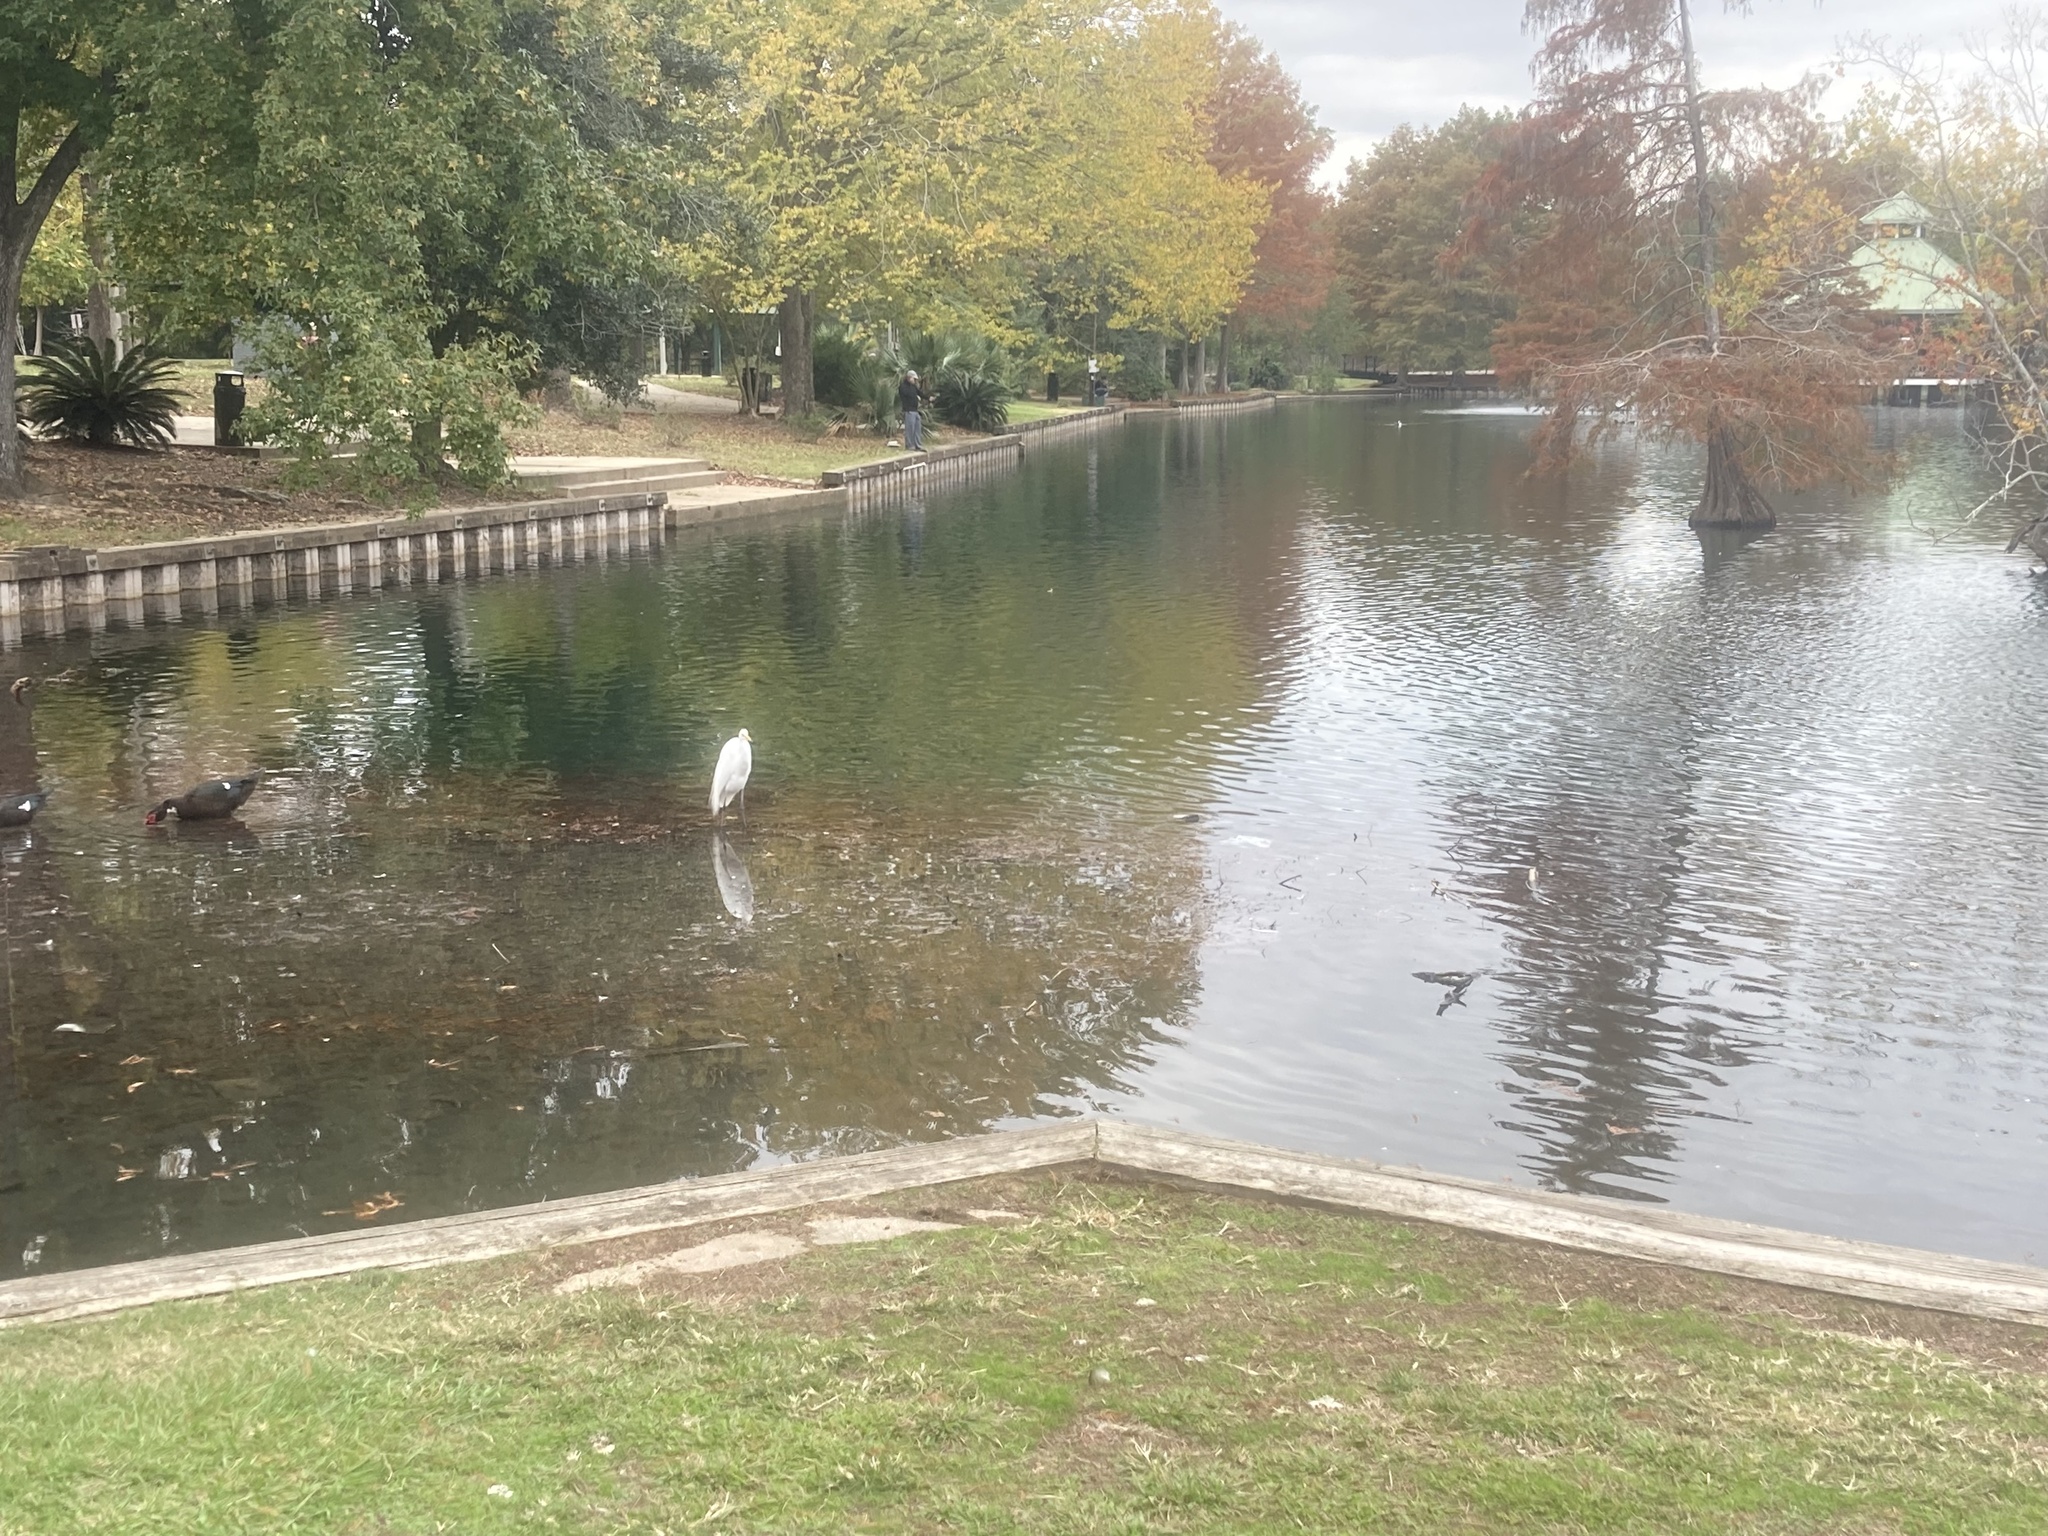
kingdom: Animalia
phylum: Chordata
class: Aves
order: Pelecaniformes
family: Ardeidae
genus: Ardea
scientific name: Ardea alba
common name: Great egret
